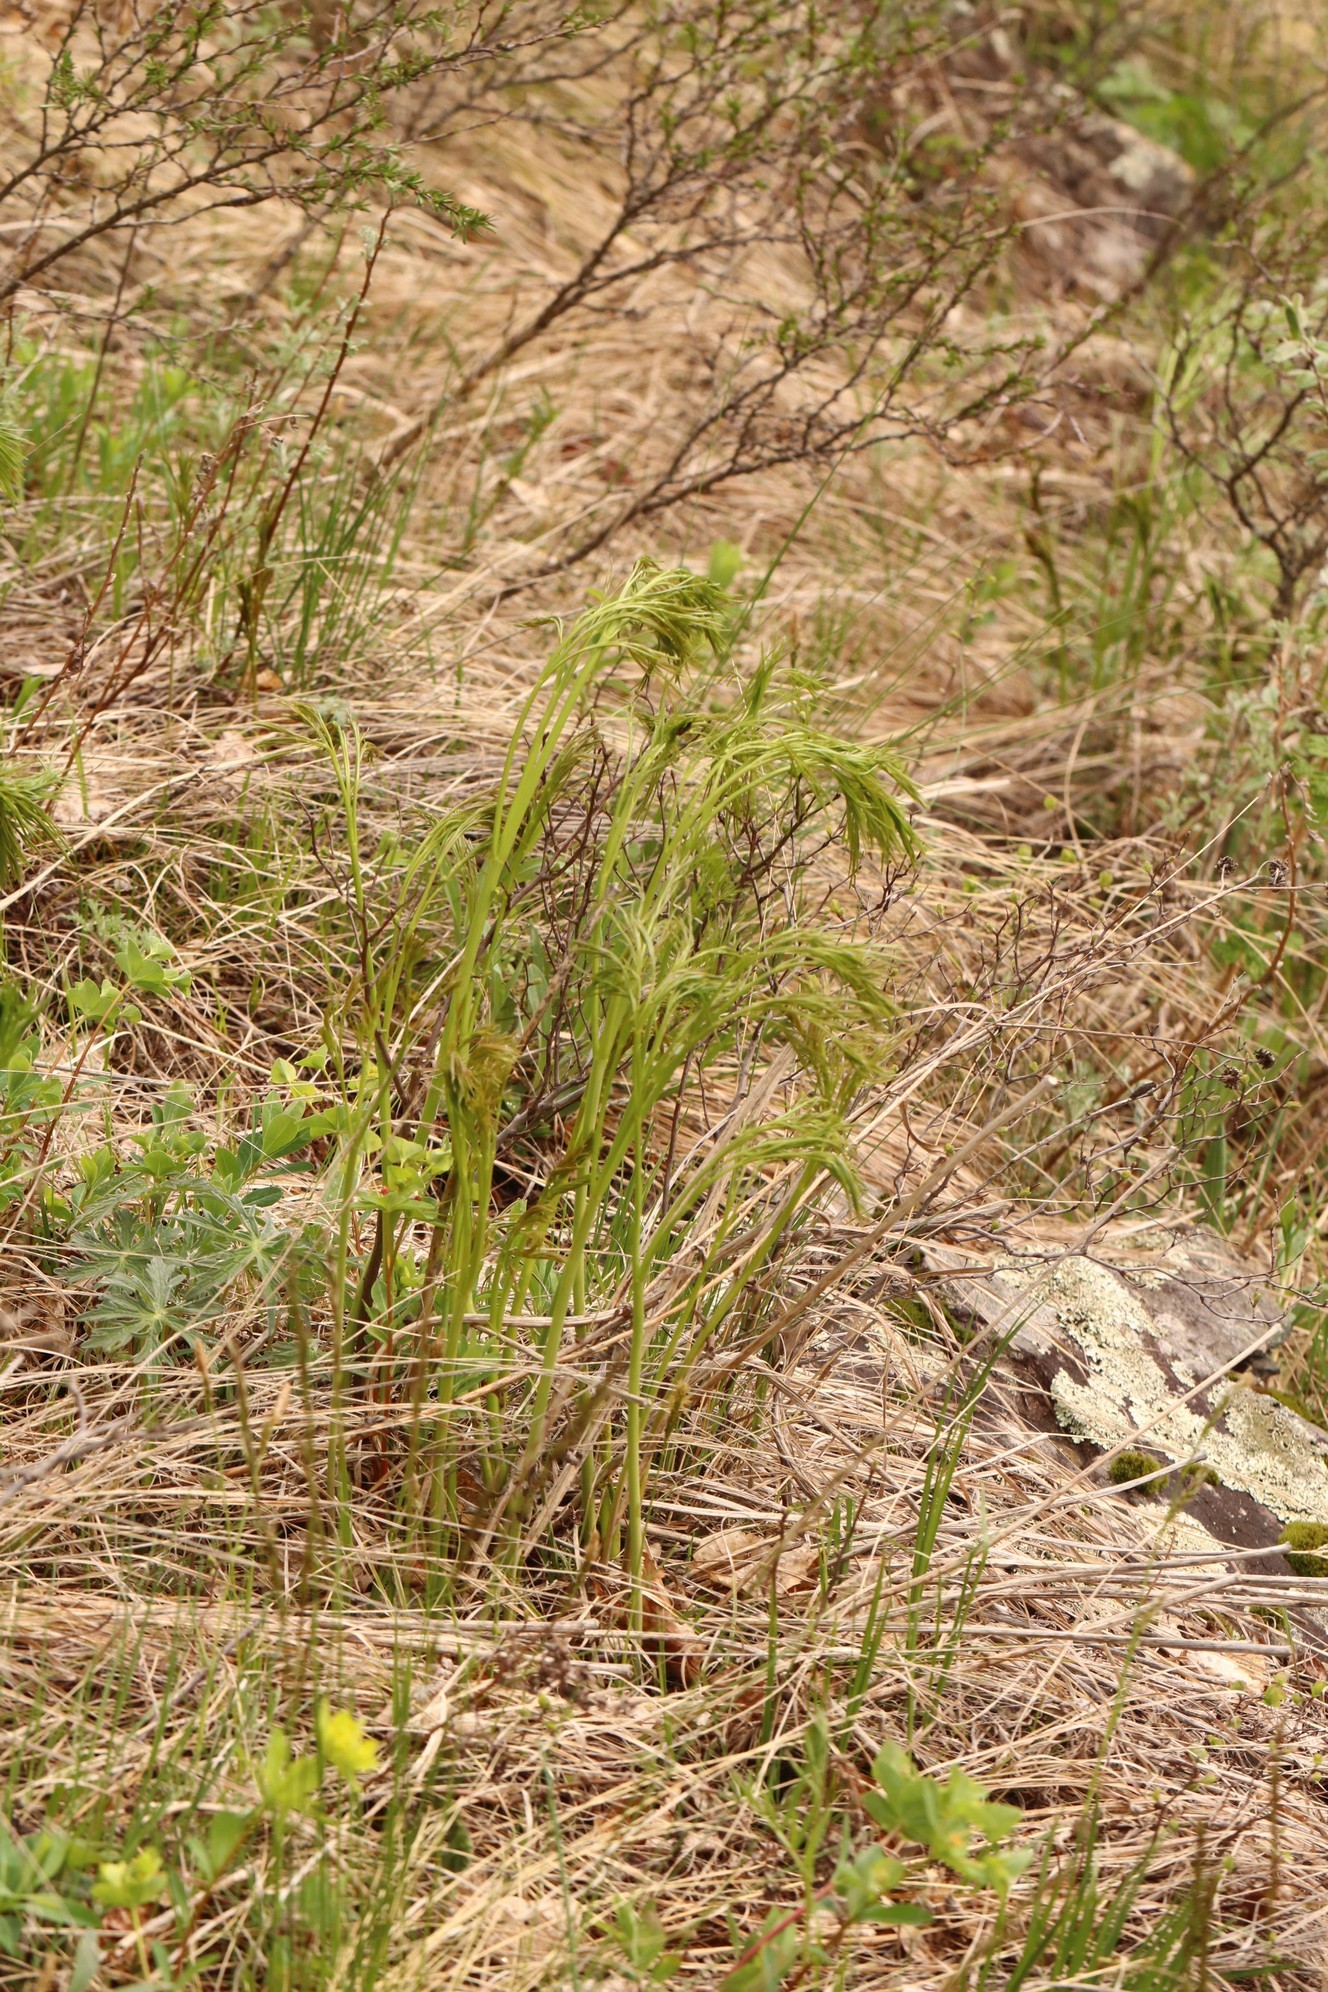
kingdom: Plantae
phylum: Tracheophyta
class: Magnoliopsida
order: Apiales
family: Apiaceae
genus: Peucedanum
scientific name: Peucedanum morisonii
